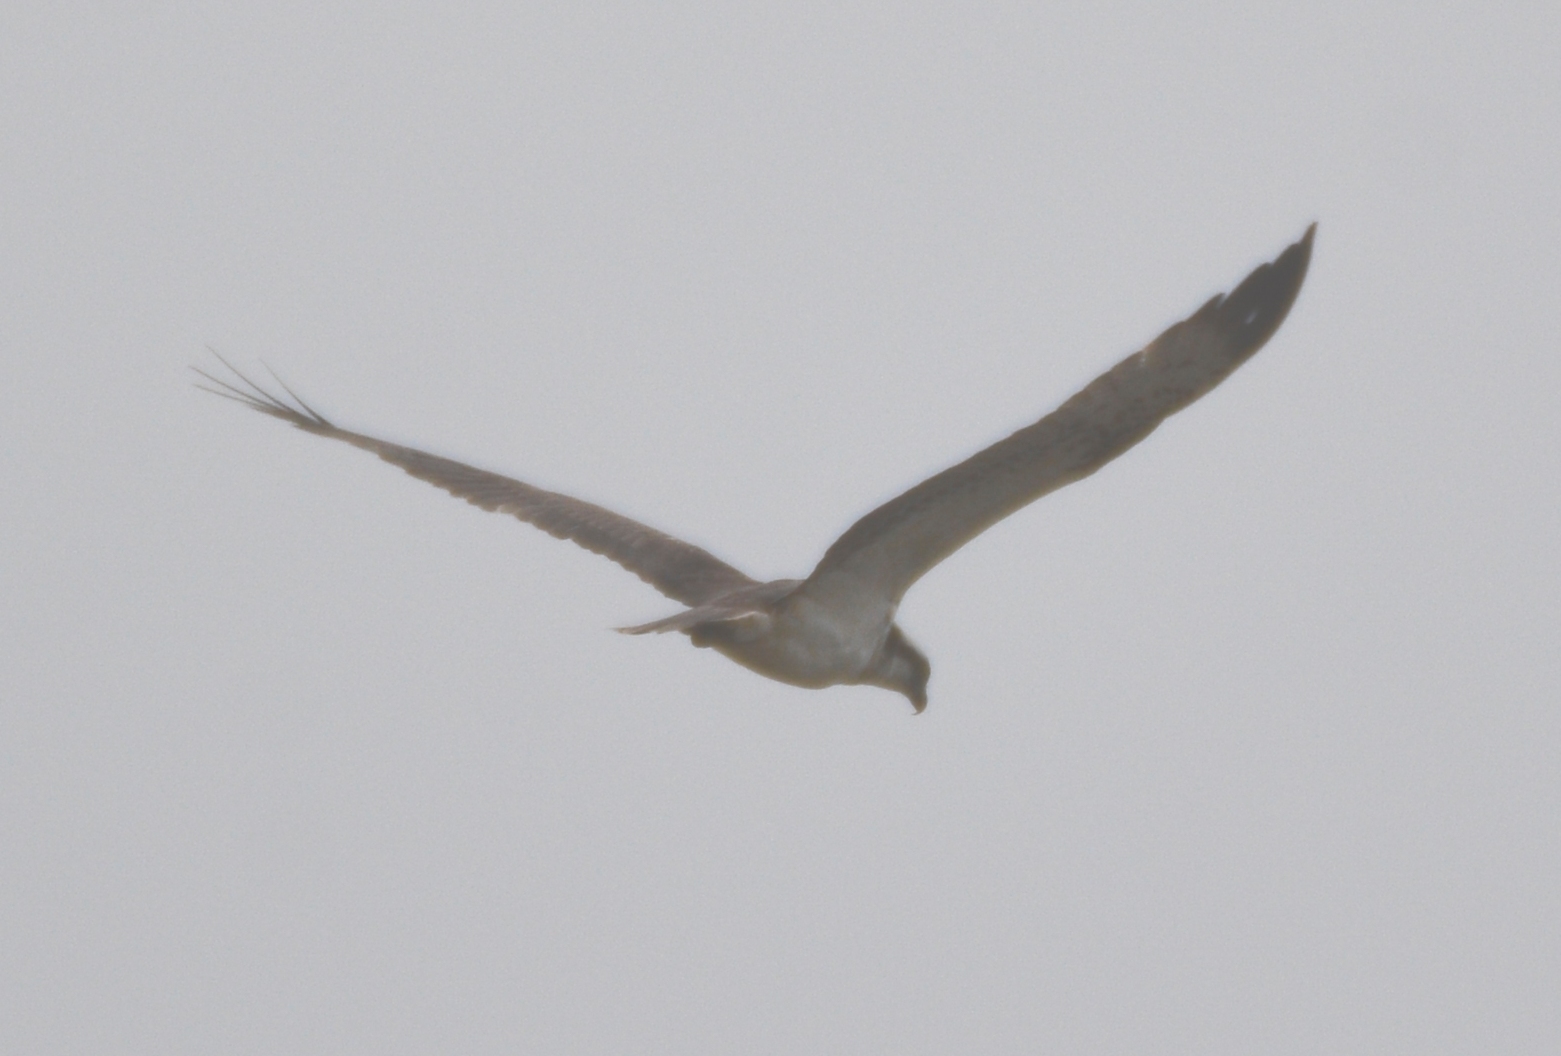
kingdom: Animalia
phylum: Chordata
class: Aves
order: Accipitriformes
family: Pandionidae
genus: Pandion
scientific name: Pandion haliaetus
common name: Osprey
